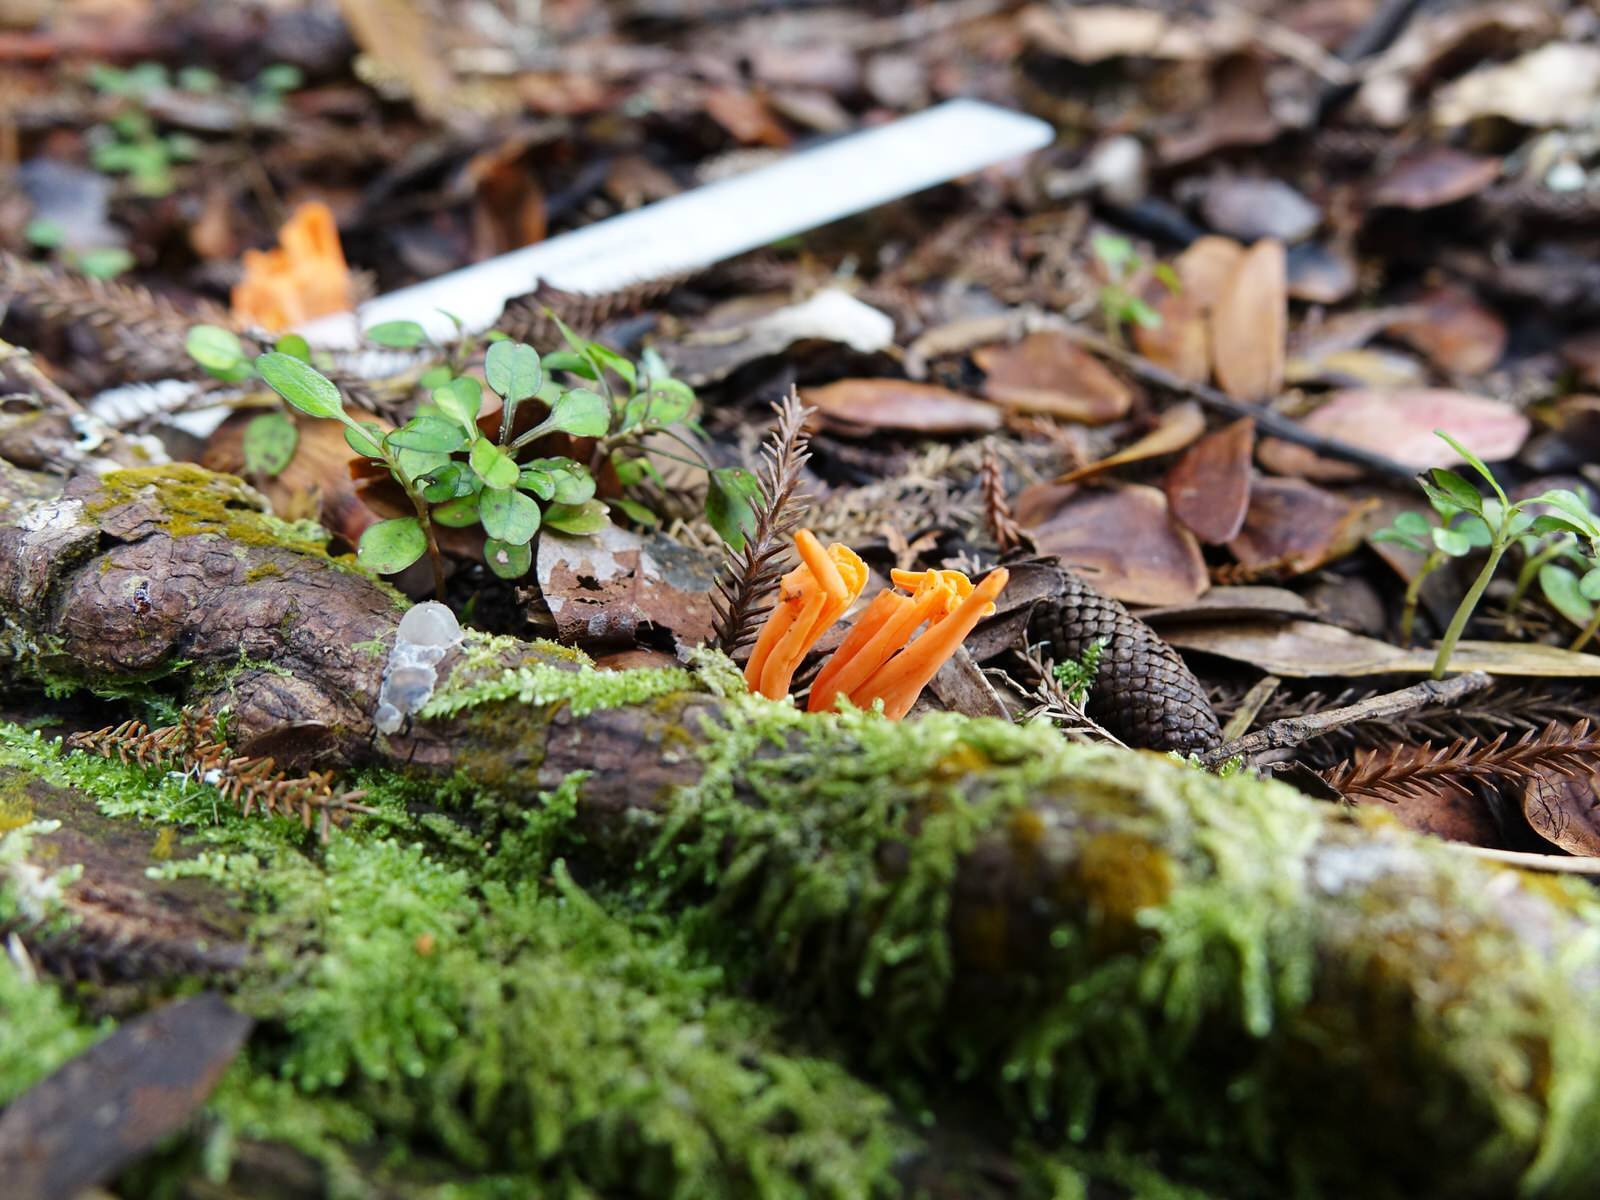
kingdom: Fungi
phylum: Basidiomycota
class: Agaricomycetes
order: Agaricales
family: Clavariaceae
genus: Clavulinopsis
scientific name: Clavulinopsis sulcata
